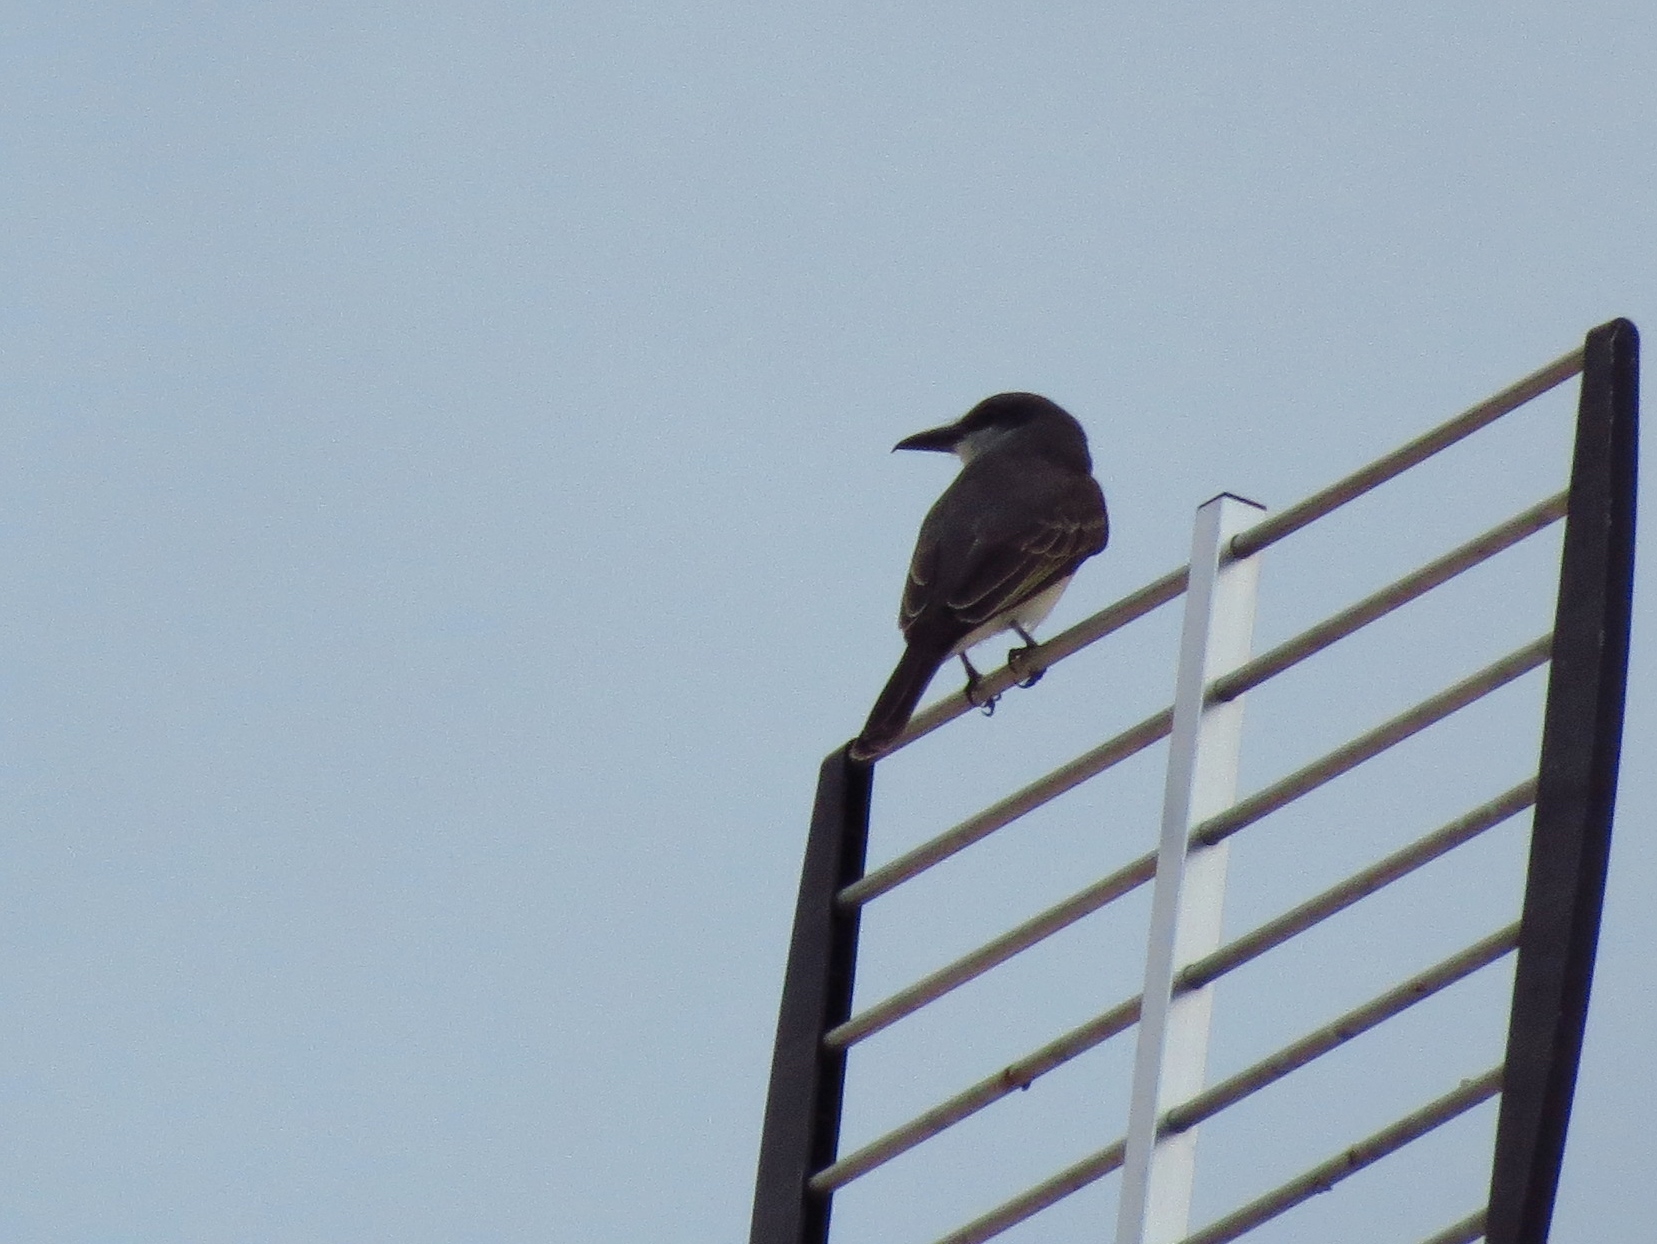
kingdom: Animalia
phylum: Chordata
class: Aves
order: Passeriformes
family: Tyrannidae
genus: Tyrannus
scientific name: Tyrannus dominicensis
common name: Gray kingbird
